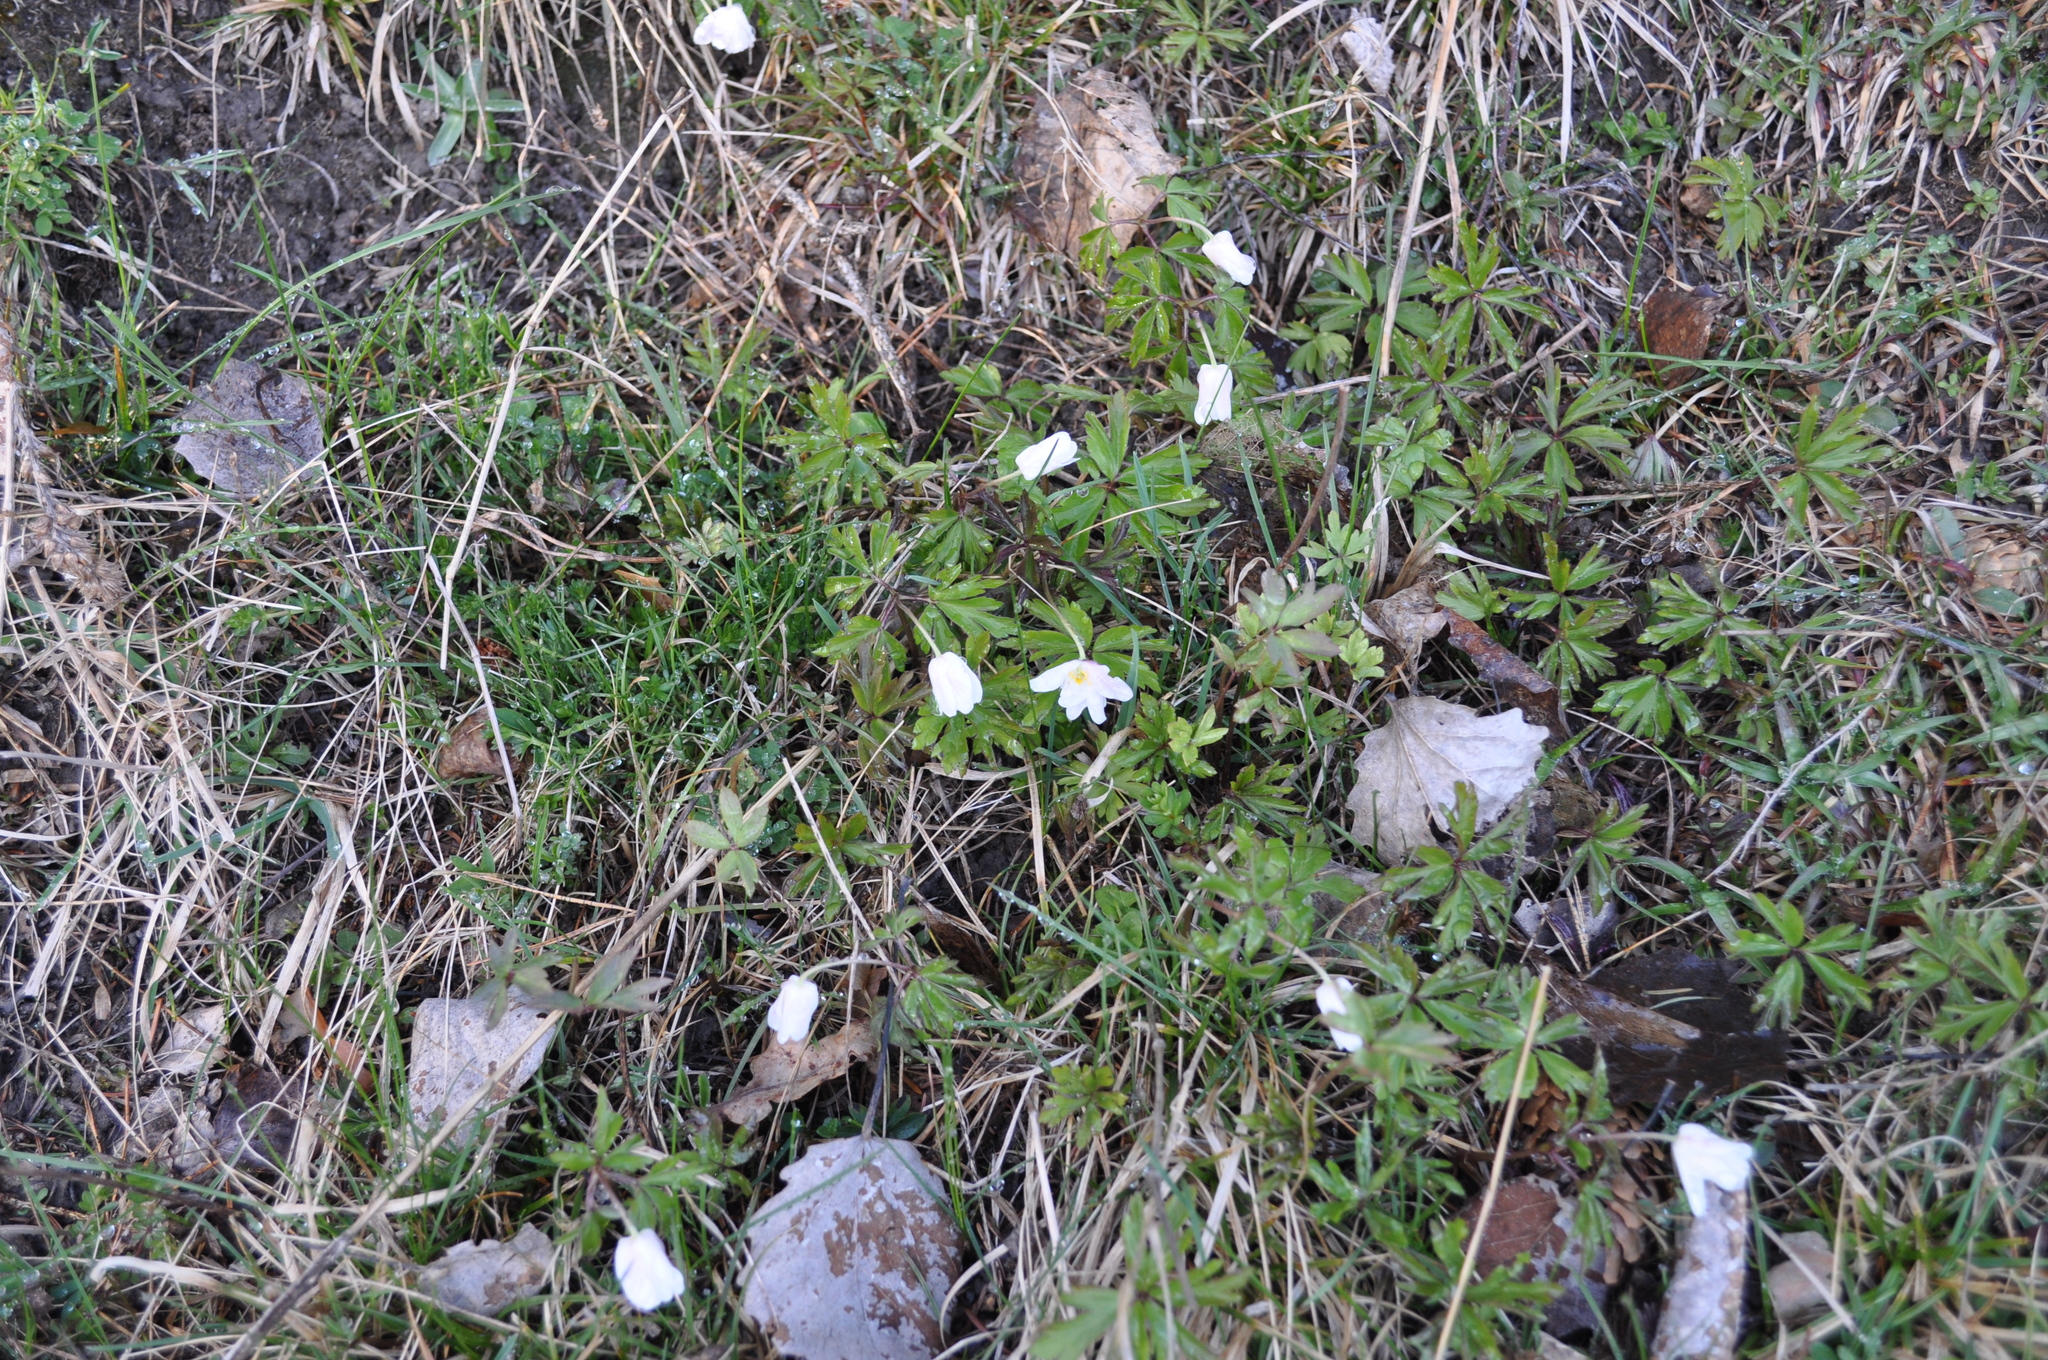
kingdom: Plantae
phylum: Tracheophyta
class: Magnoliopsida
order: Ranunculales
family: Ranunculaceae
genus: Anemone
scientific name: Anemone nemorosa
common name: Wood anemone
